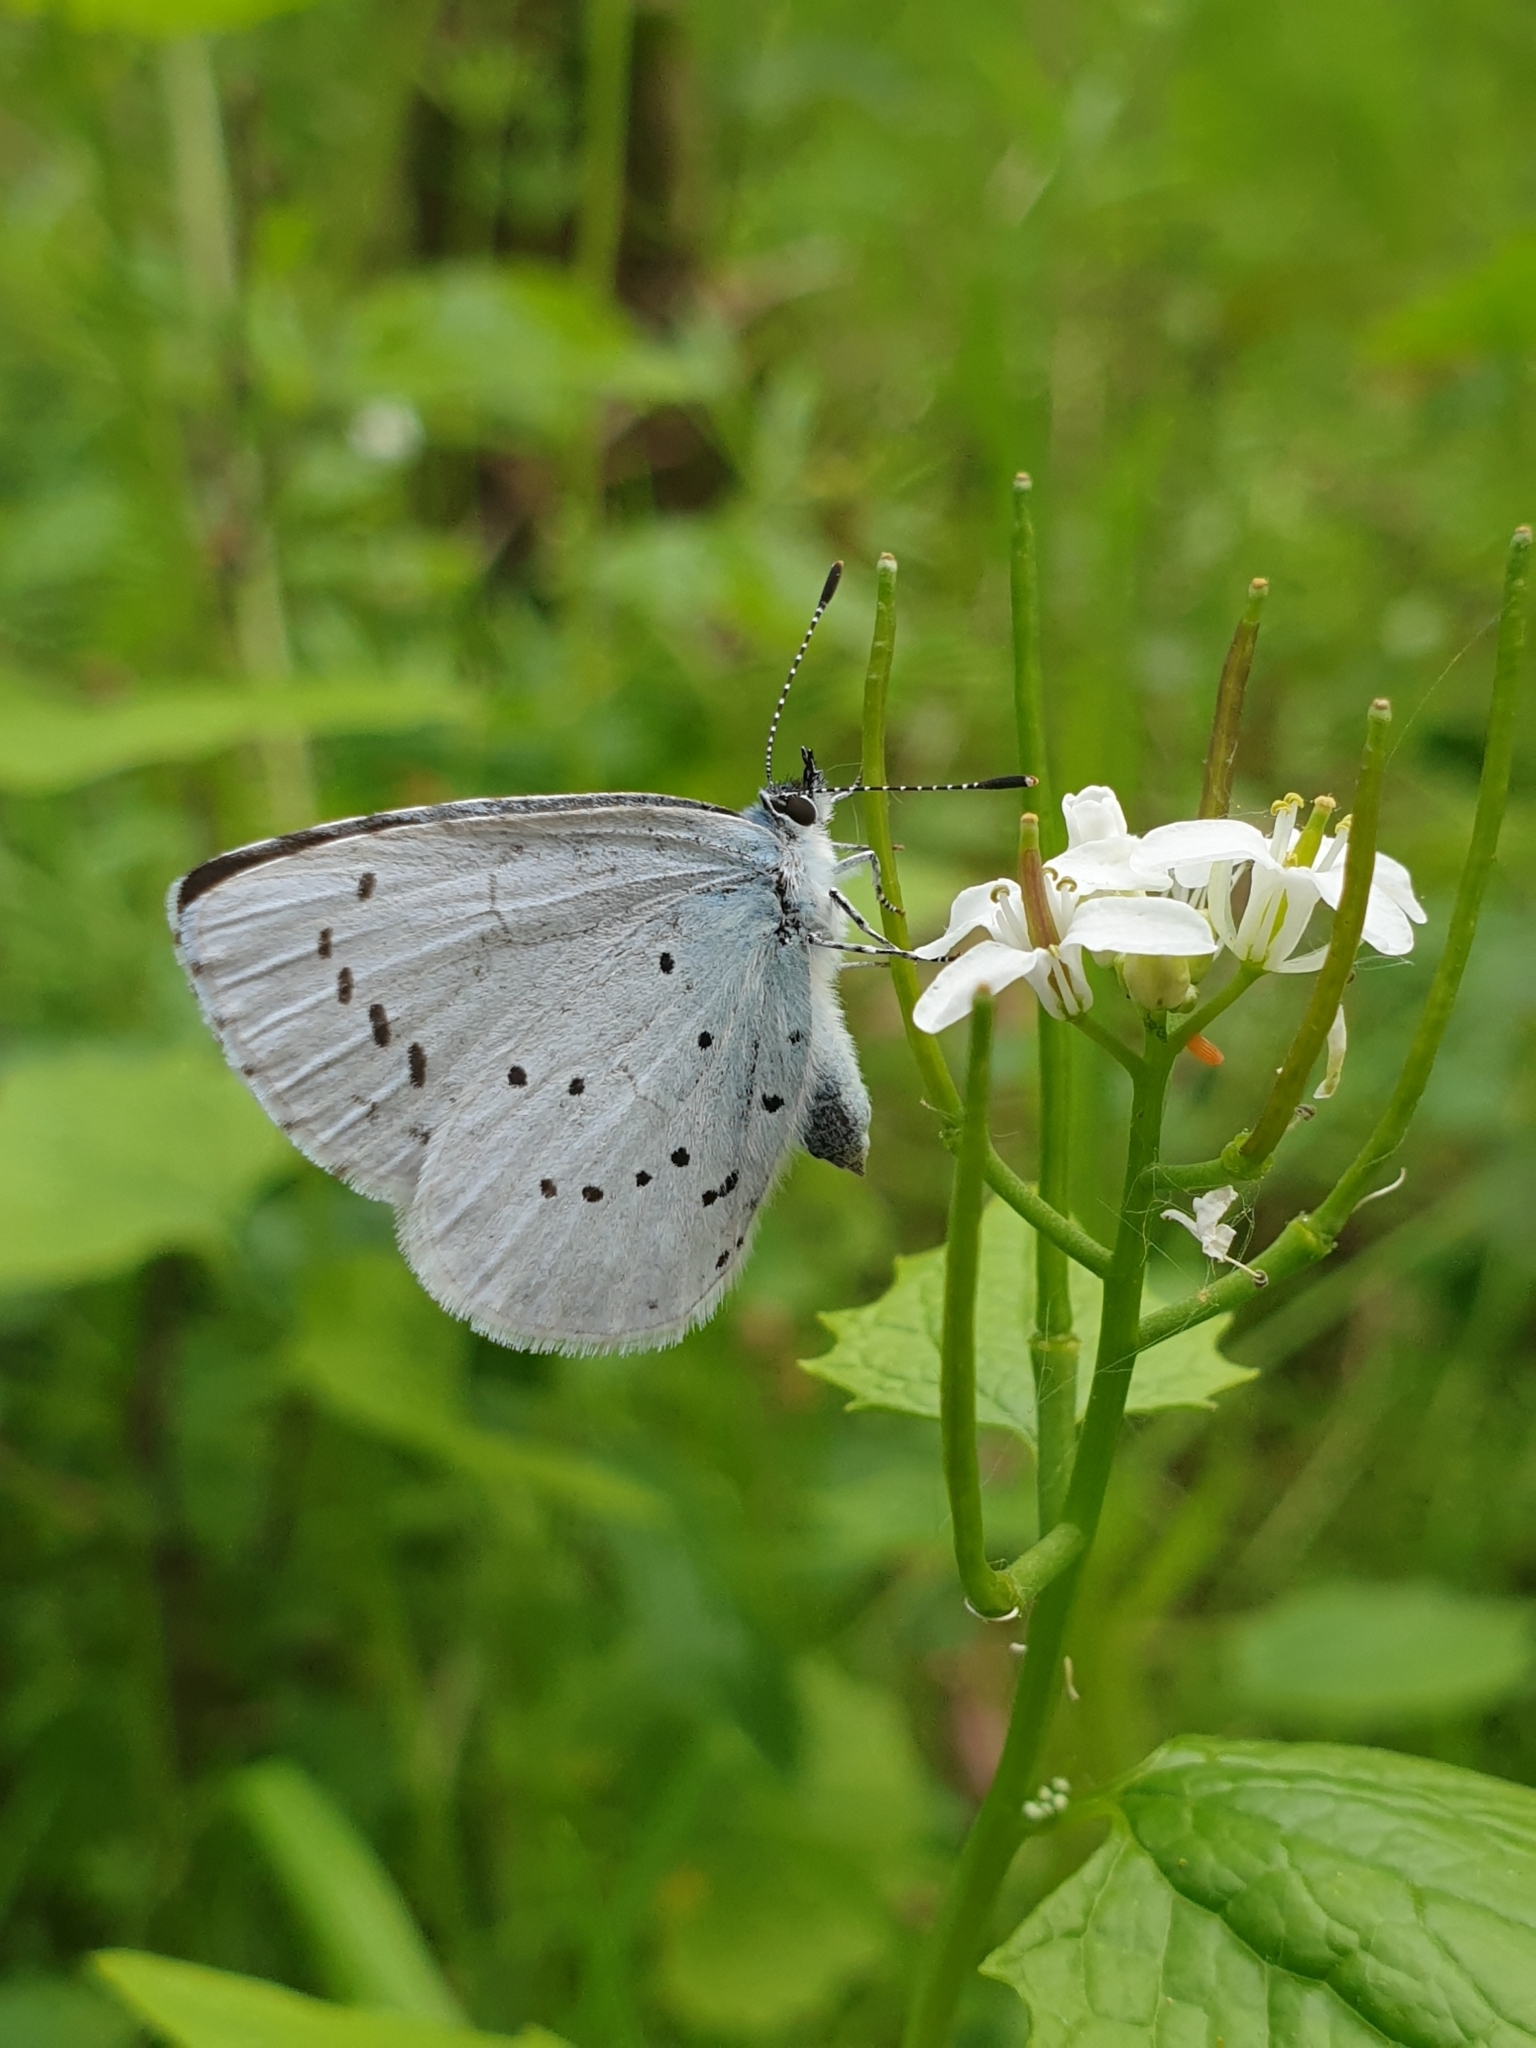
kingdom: Animalia
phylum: Arthropoda
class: Insecta
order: Lepidoptera
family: Lycaenidae
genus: Celastrina
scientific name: Celastrina argiolus
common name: Holly blue
